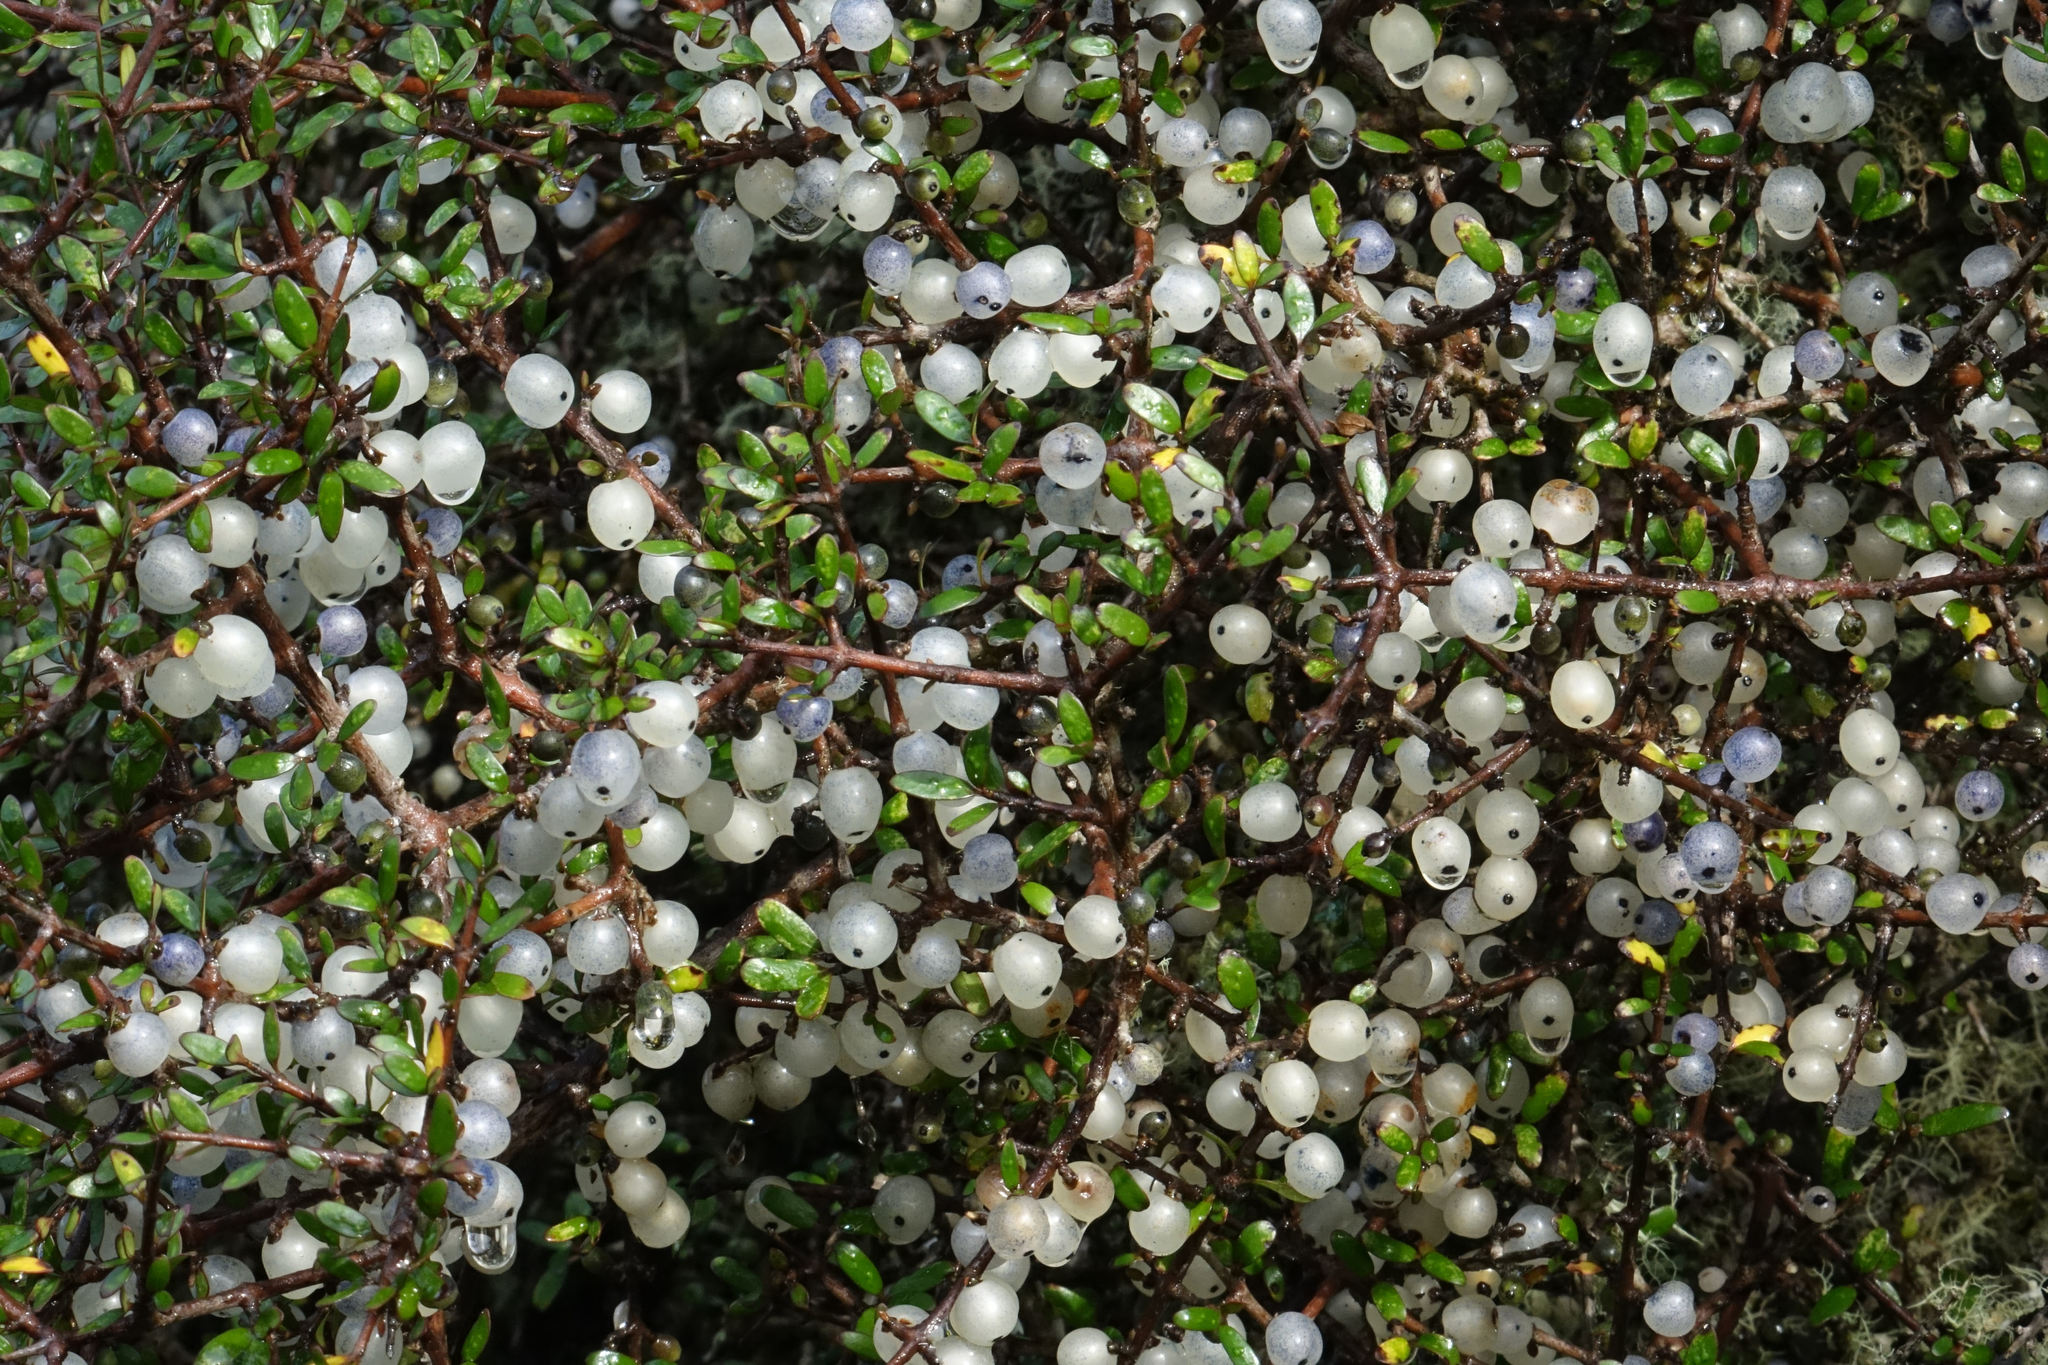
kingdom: Plantae
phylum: Tracheophyta
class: Magnoliopsida
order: Gentianales
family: Rubiaceae
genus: Coprosma
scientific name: Coprosma propinqua
